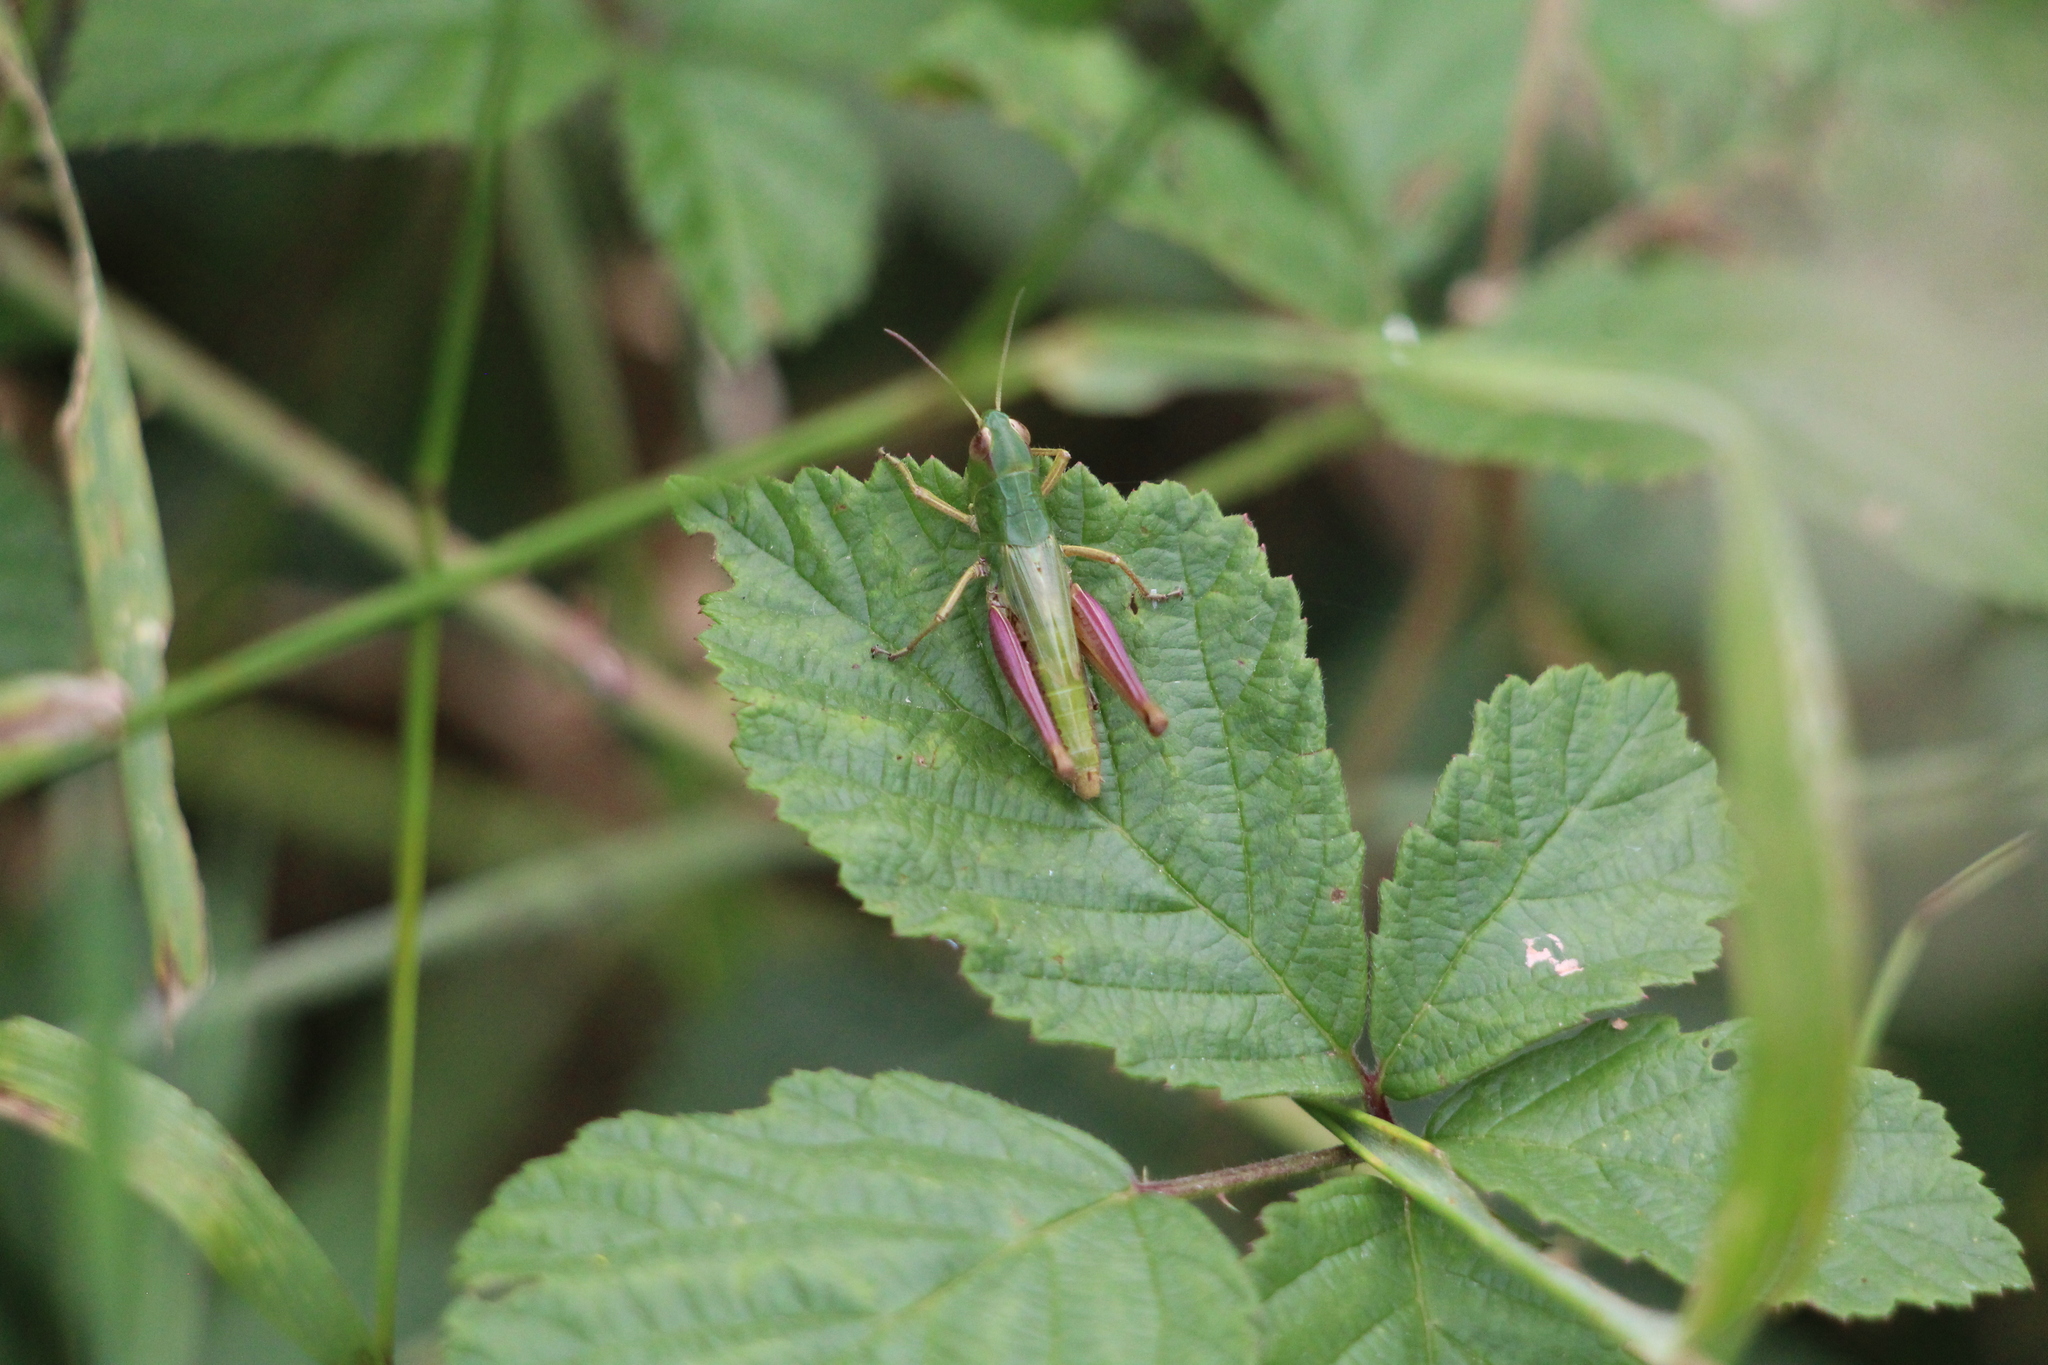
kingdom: Animalia
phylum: Arthropoda
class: Insecta
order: Orthoptera
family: Acrididae
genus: Pseudochorthippus
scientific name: Pseudochorthippus parallelus
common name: Meadow grasshopper
